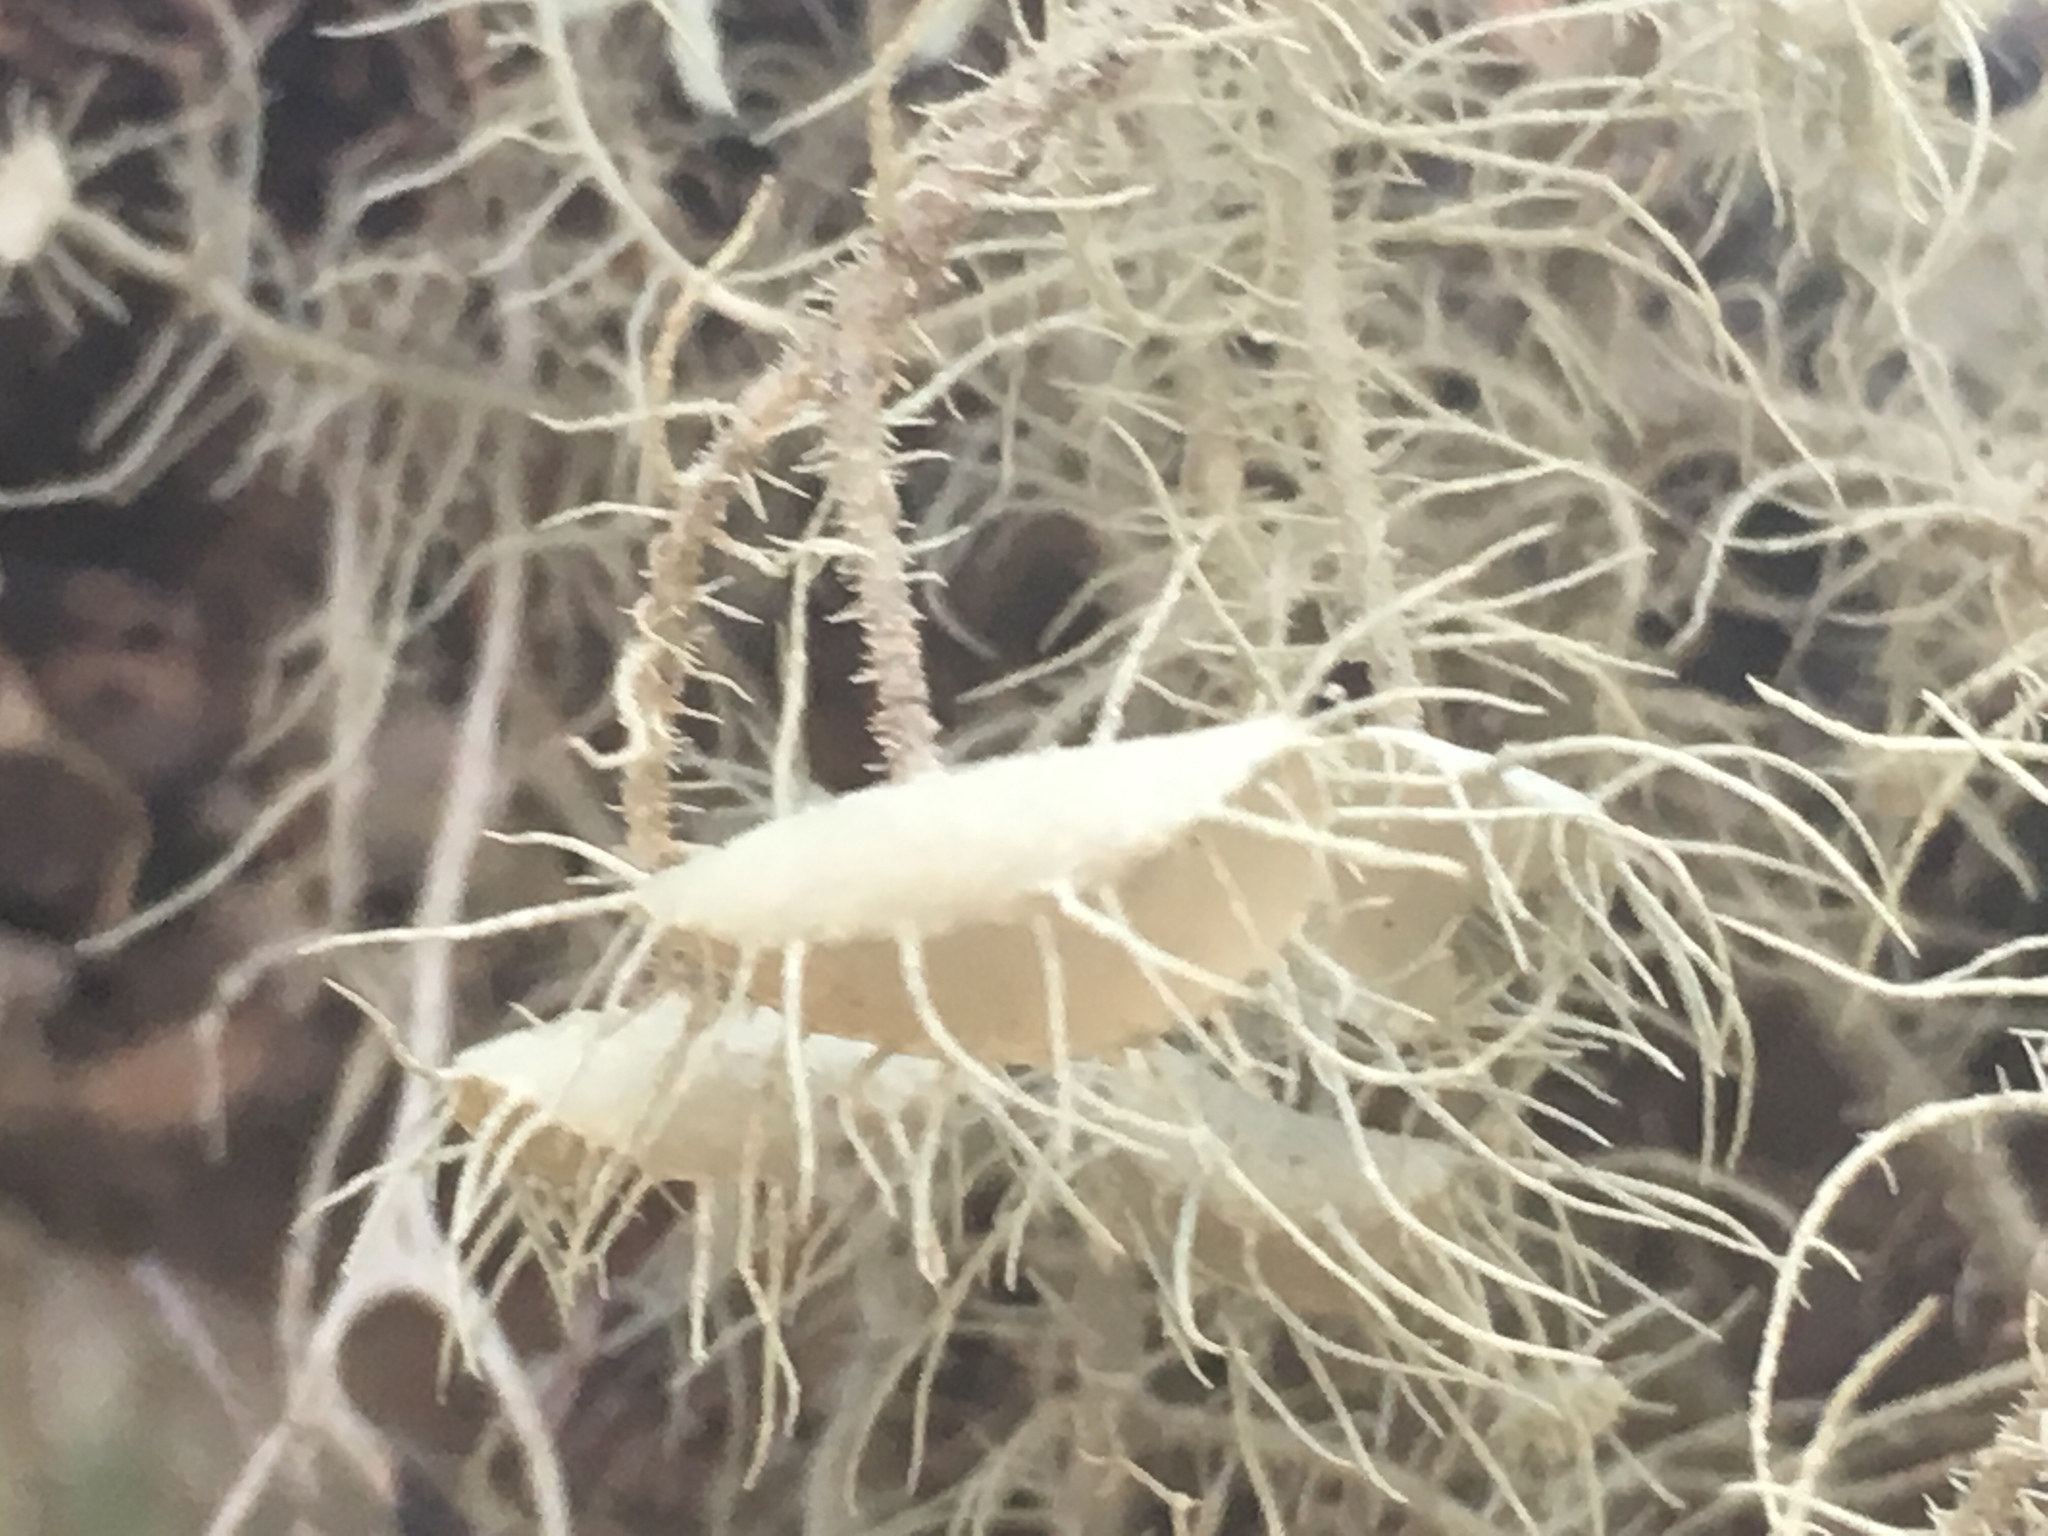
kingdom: Fungi
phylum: Ascomycota
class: Lecanoromycetes
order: Lecanorales
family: Parmeliaceae
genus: Usnea
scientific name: Usnea intermedia
